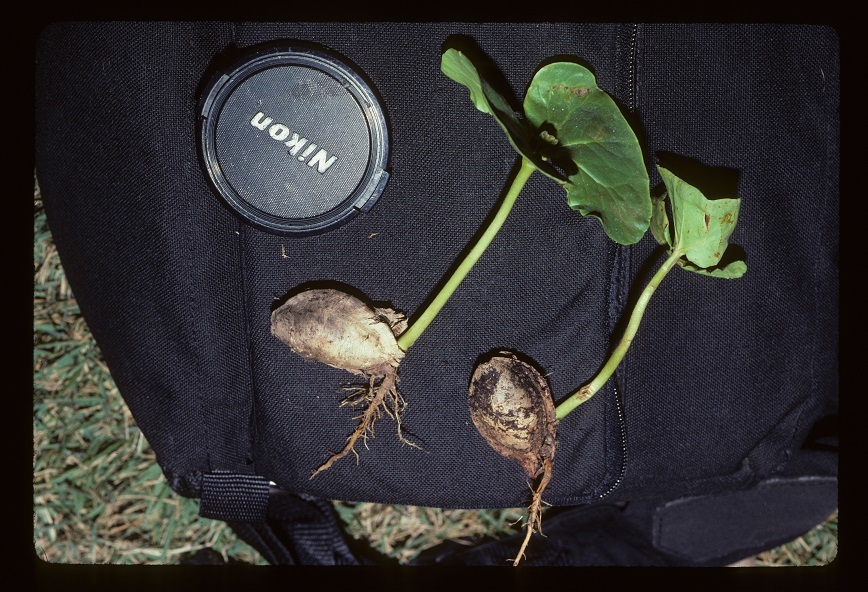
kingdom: Plantae
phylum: Tracheophyta
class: Magnoliopsida
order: Myrtales
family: Combretaceae
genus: Terminalia
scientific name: Terminalia catappa
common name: Tropical almond
